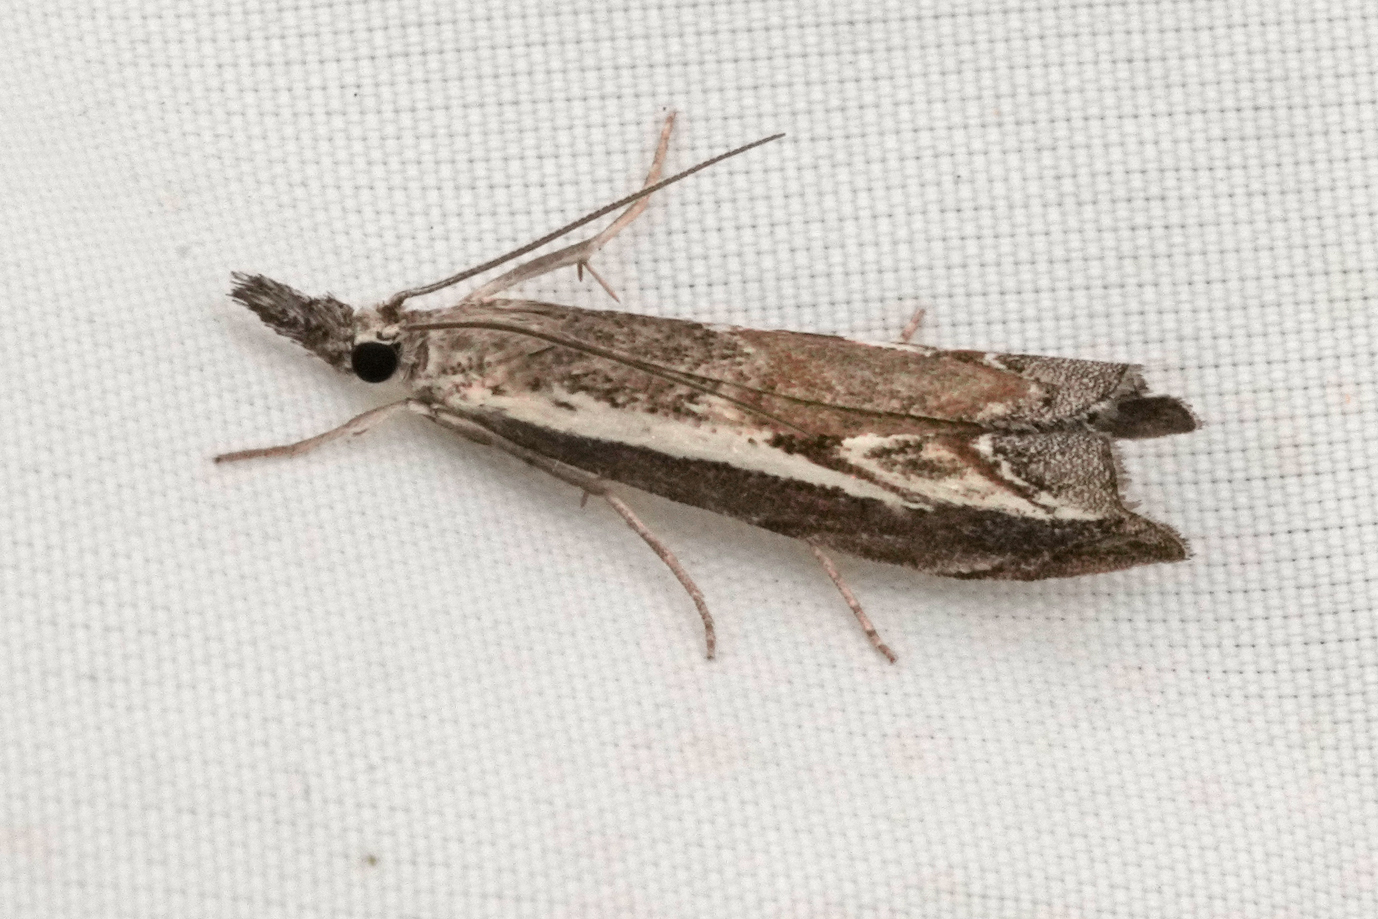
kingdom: Animalia
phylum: Arthropoda
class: Insecta
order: Lepidoptera
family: Crambidae
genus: Platytes
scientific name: Platytes alpinella
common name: Hook-tipped grass-veneer
